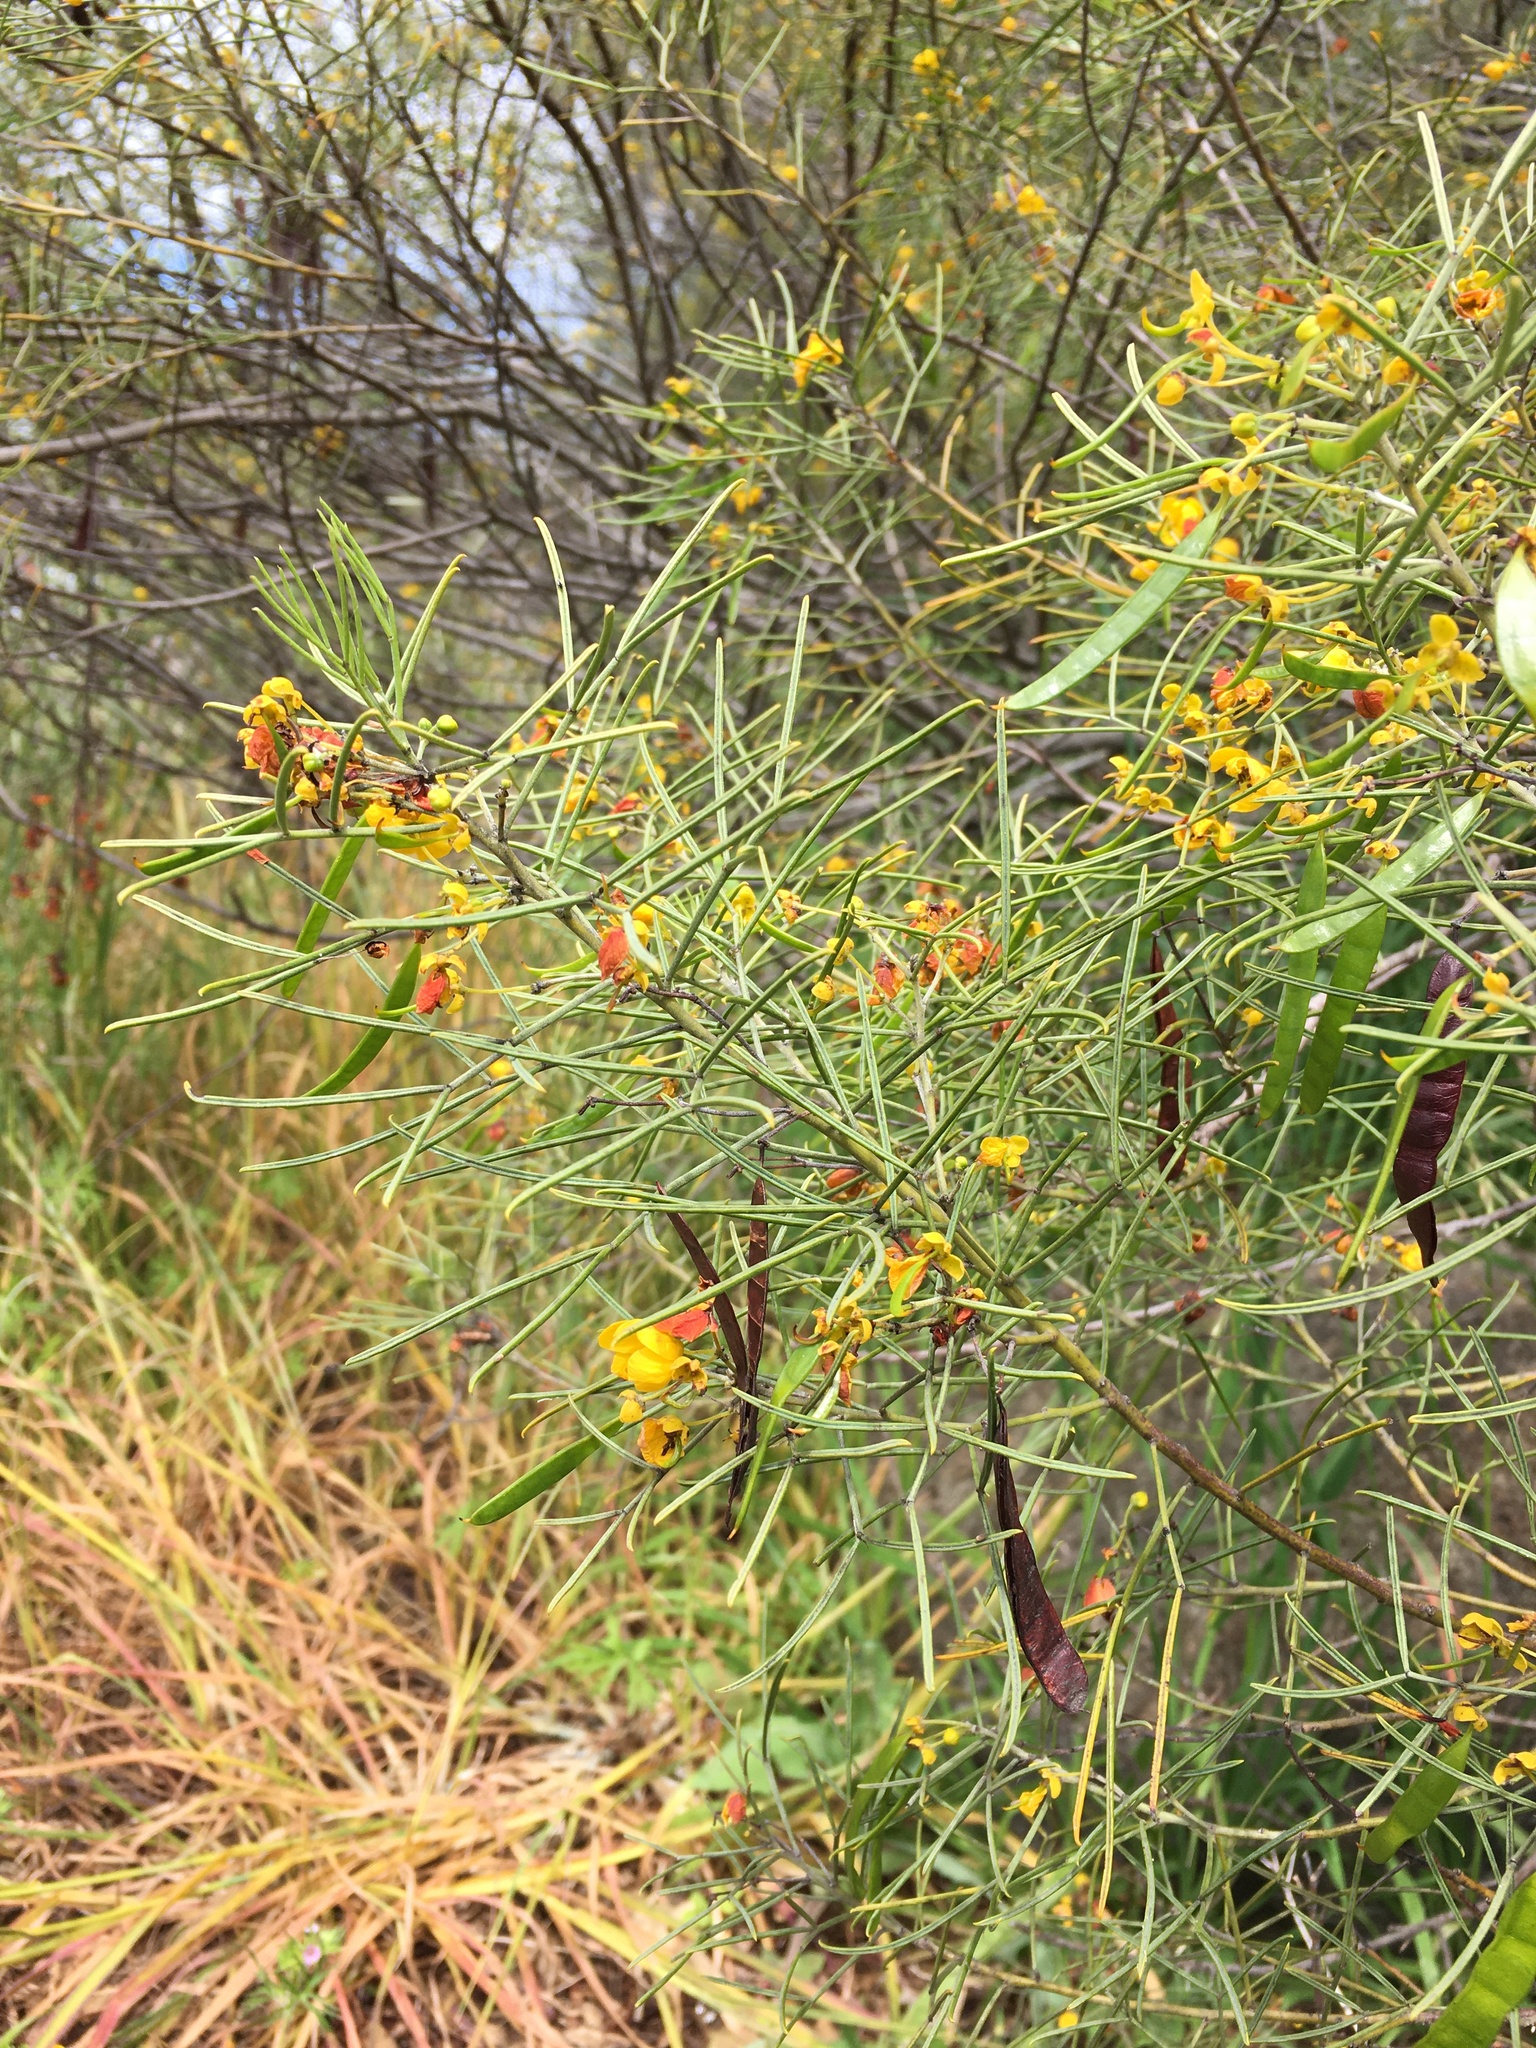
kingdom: Plantae
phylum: Tracheophyta
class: Magnoliopsida
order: Fabales
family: Fabaceae
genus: Senna
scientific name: Senna artemisioides
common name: Burnt-leaved acacia
